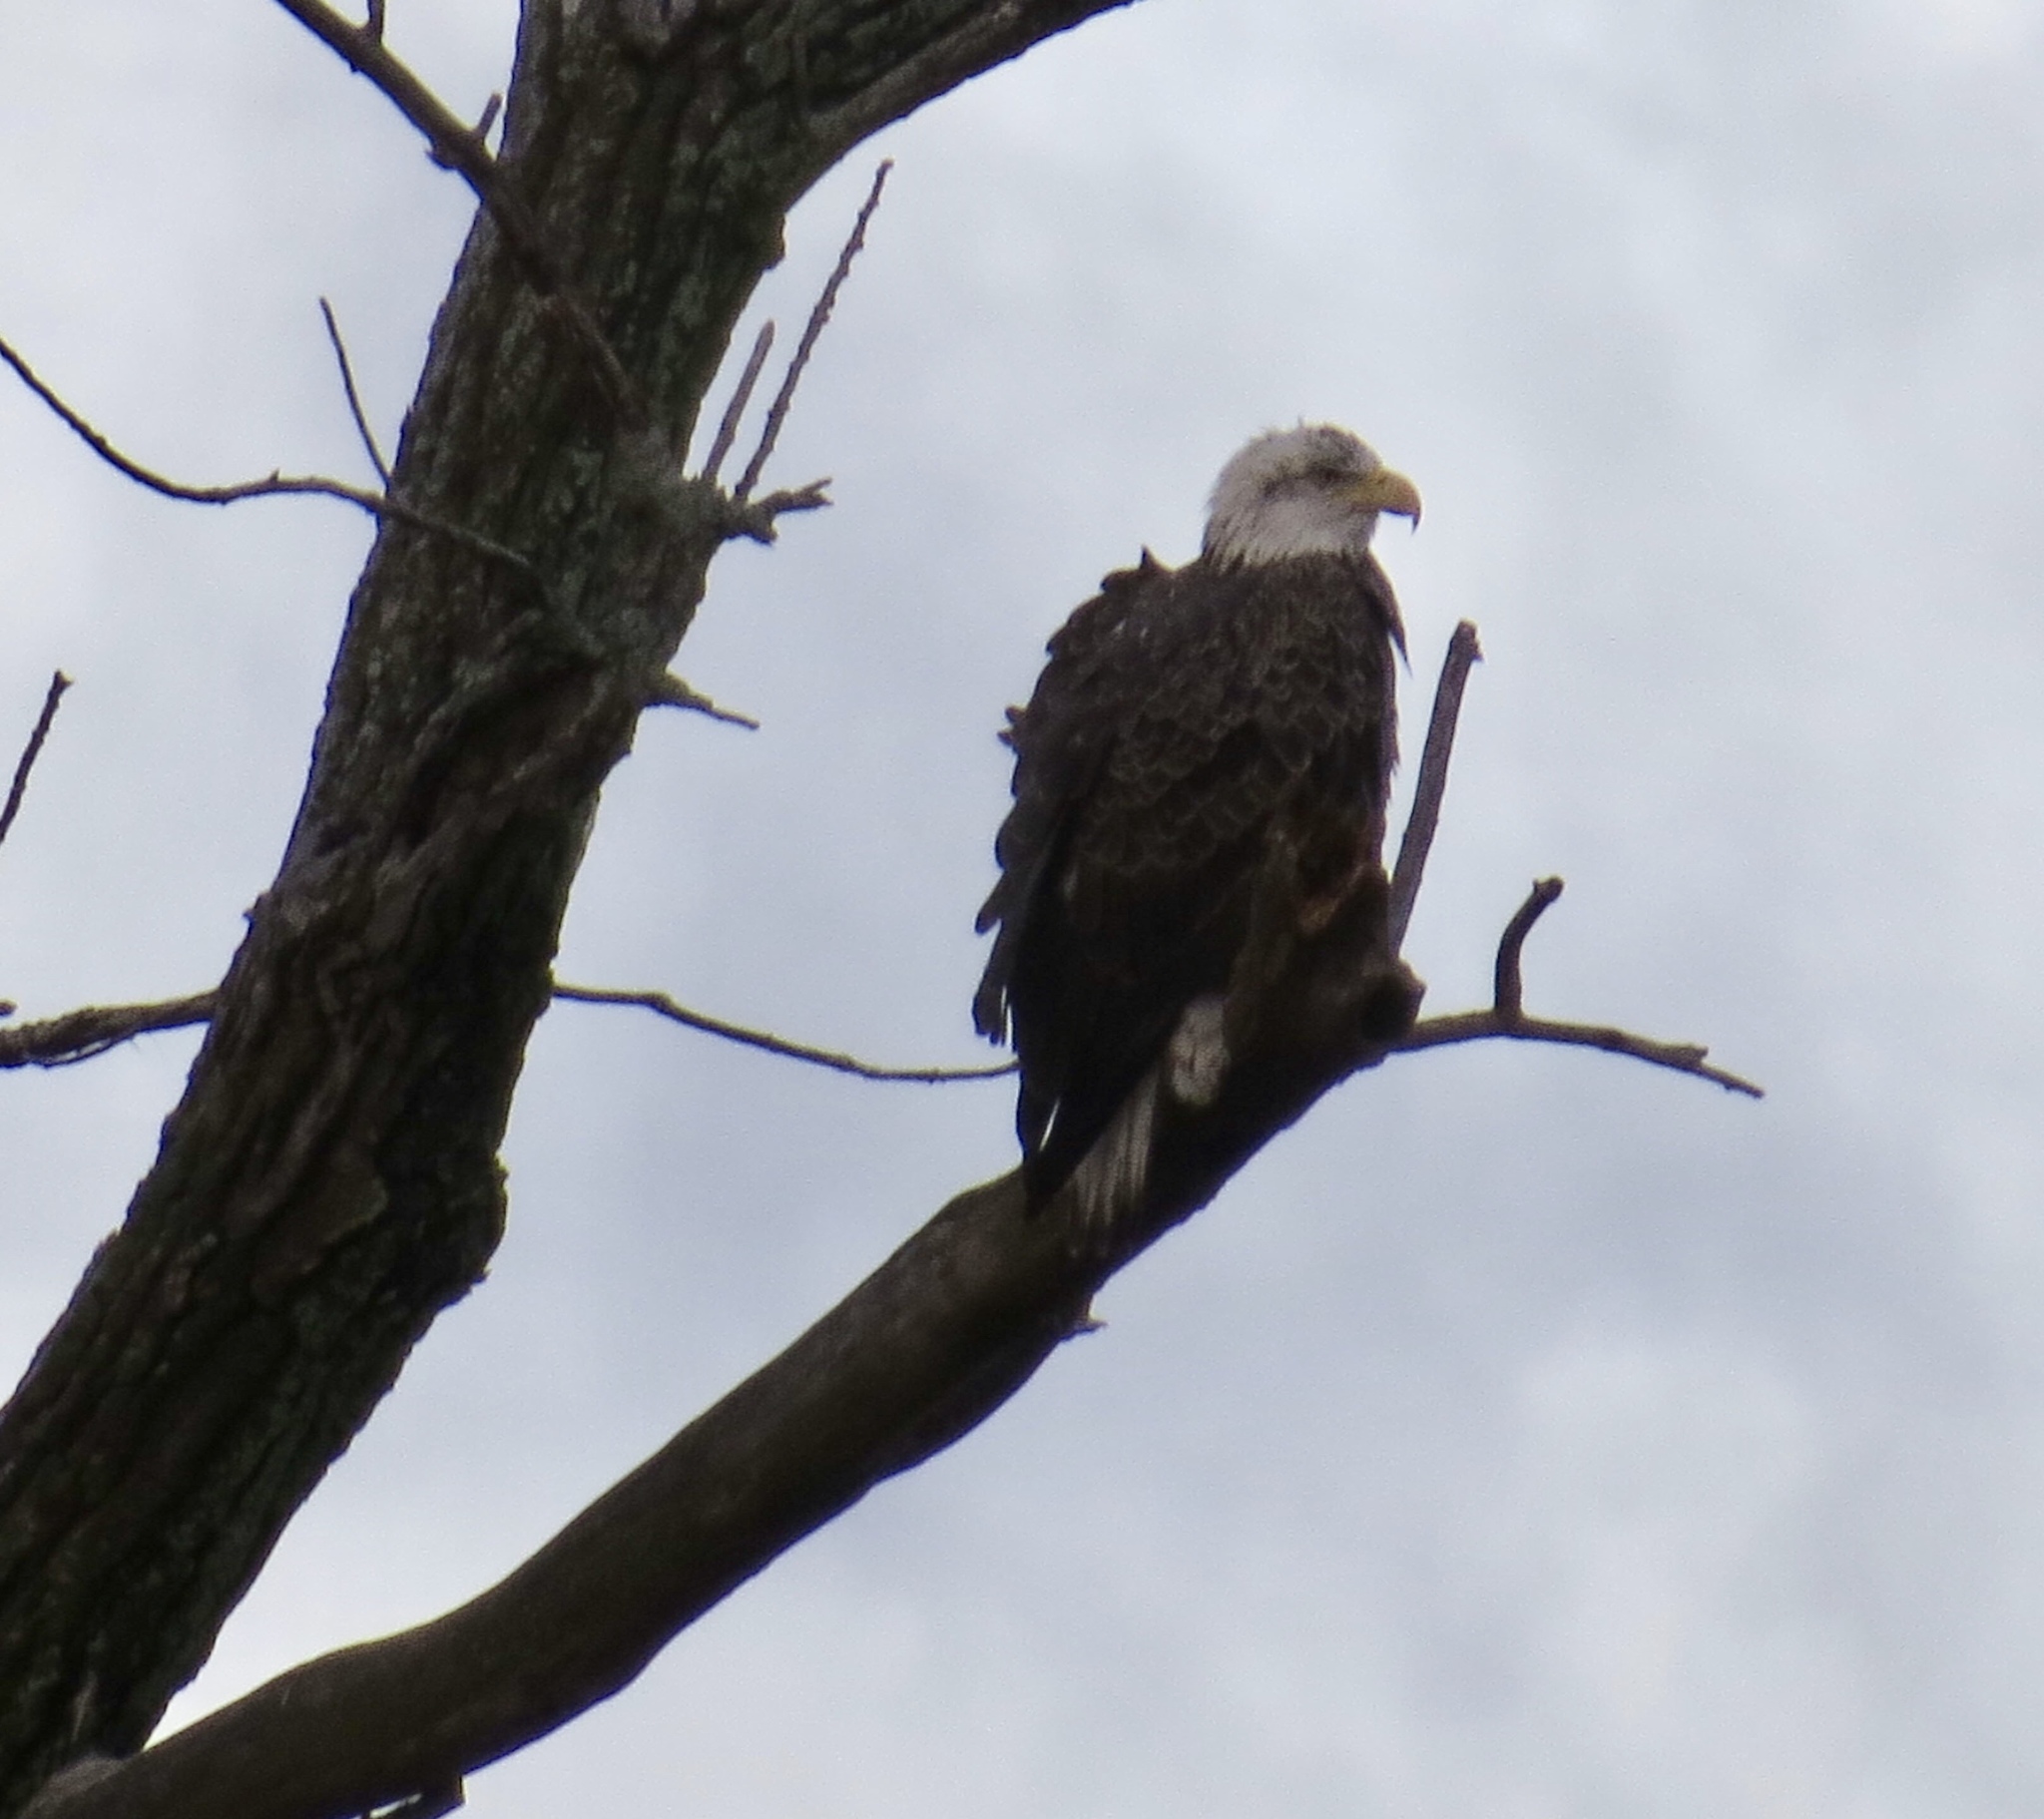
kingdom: Animalia
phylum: Chordata
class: Aves
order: Accipitriformes
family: Accipitridae
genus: Haliaeetus
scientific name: Haliaeetus leucocephalus
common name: Bald eagle
